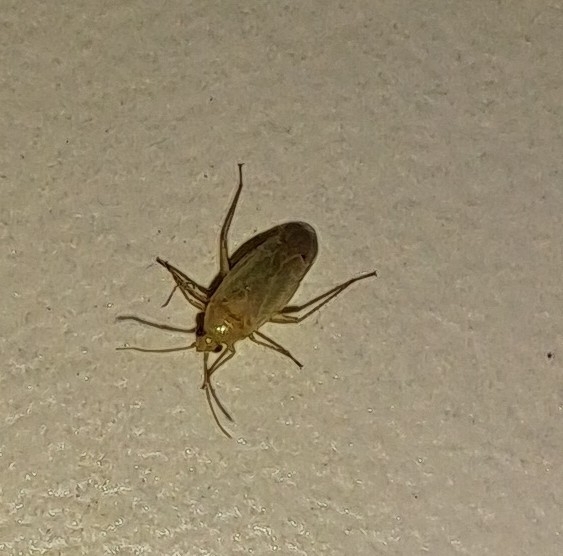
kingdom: Animalia
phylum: Arthropoda
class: Insecta
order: Hemiptera
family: Miridae
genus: Plagiognathus
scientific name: Plagiognathus bipunctatus
